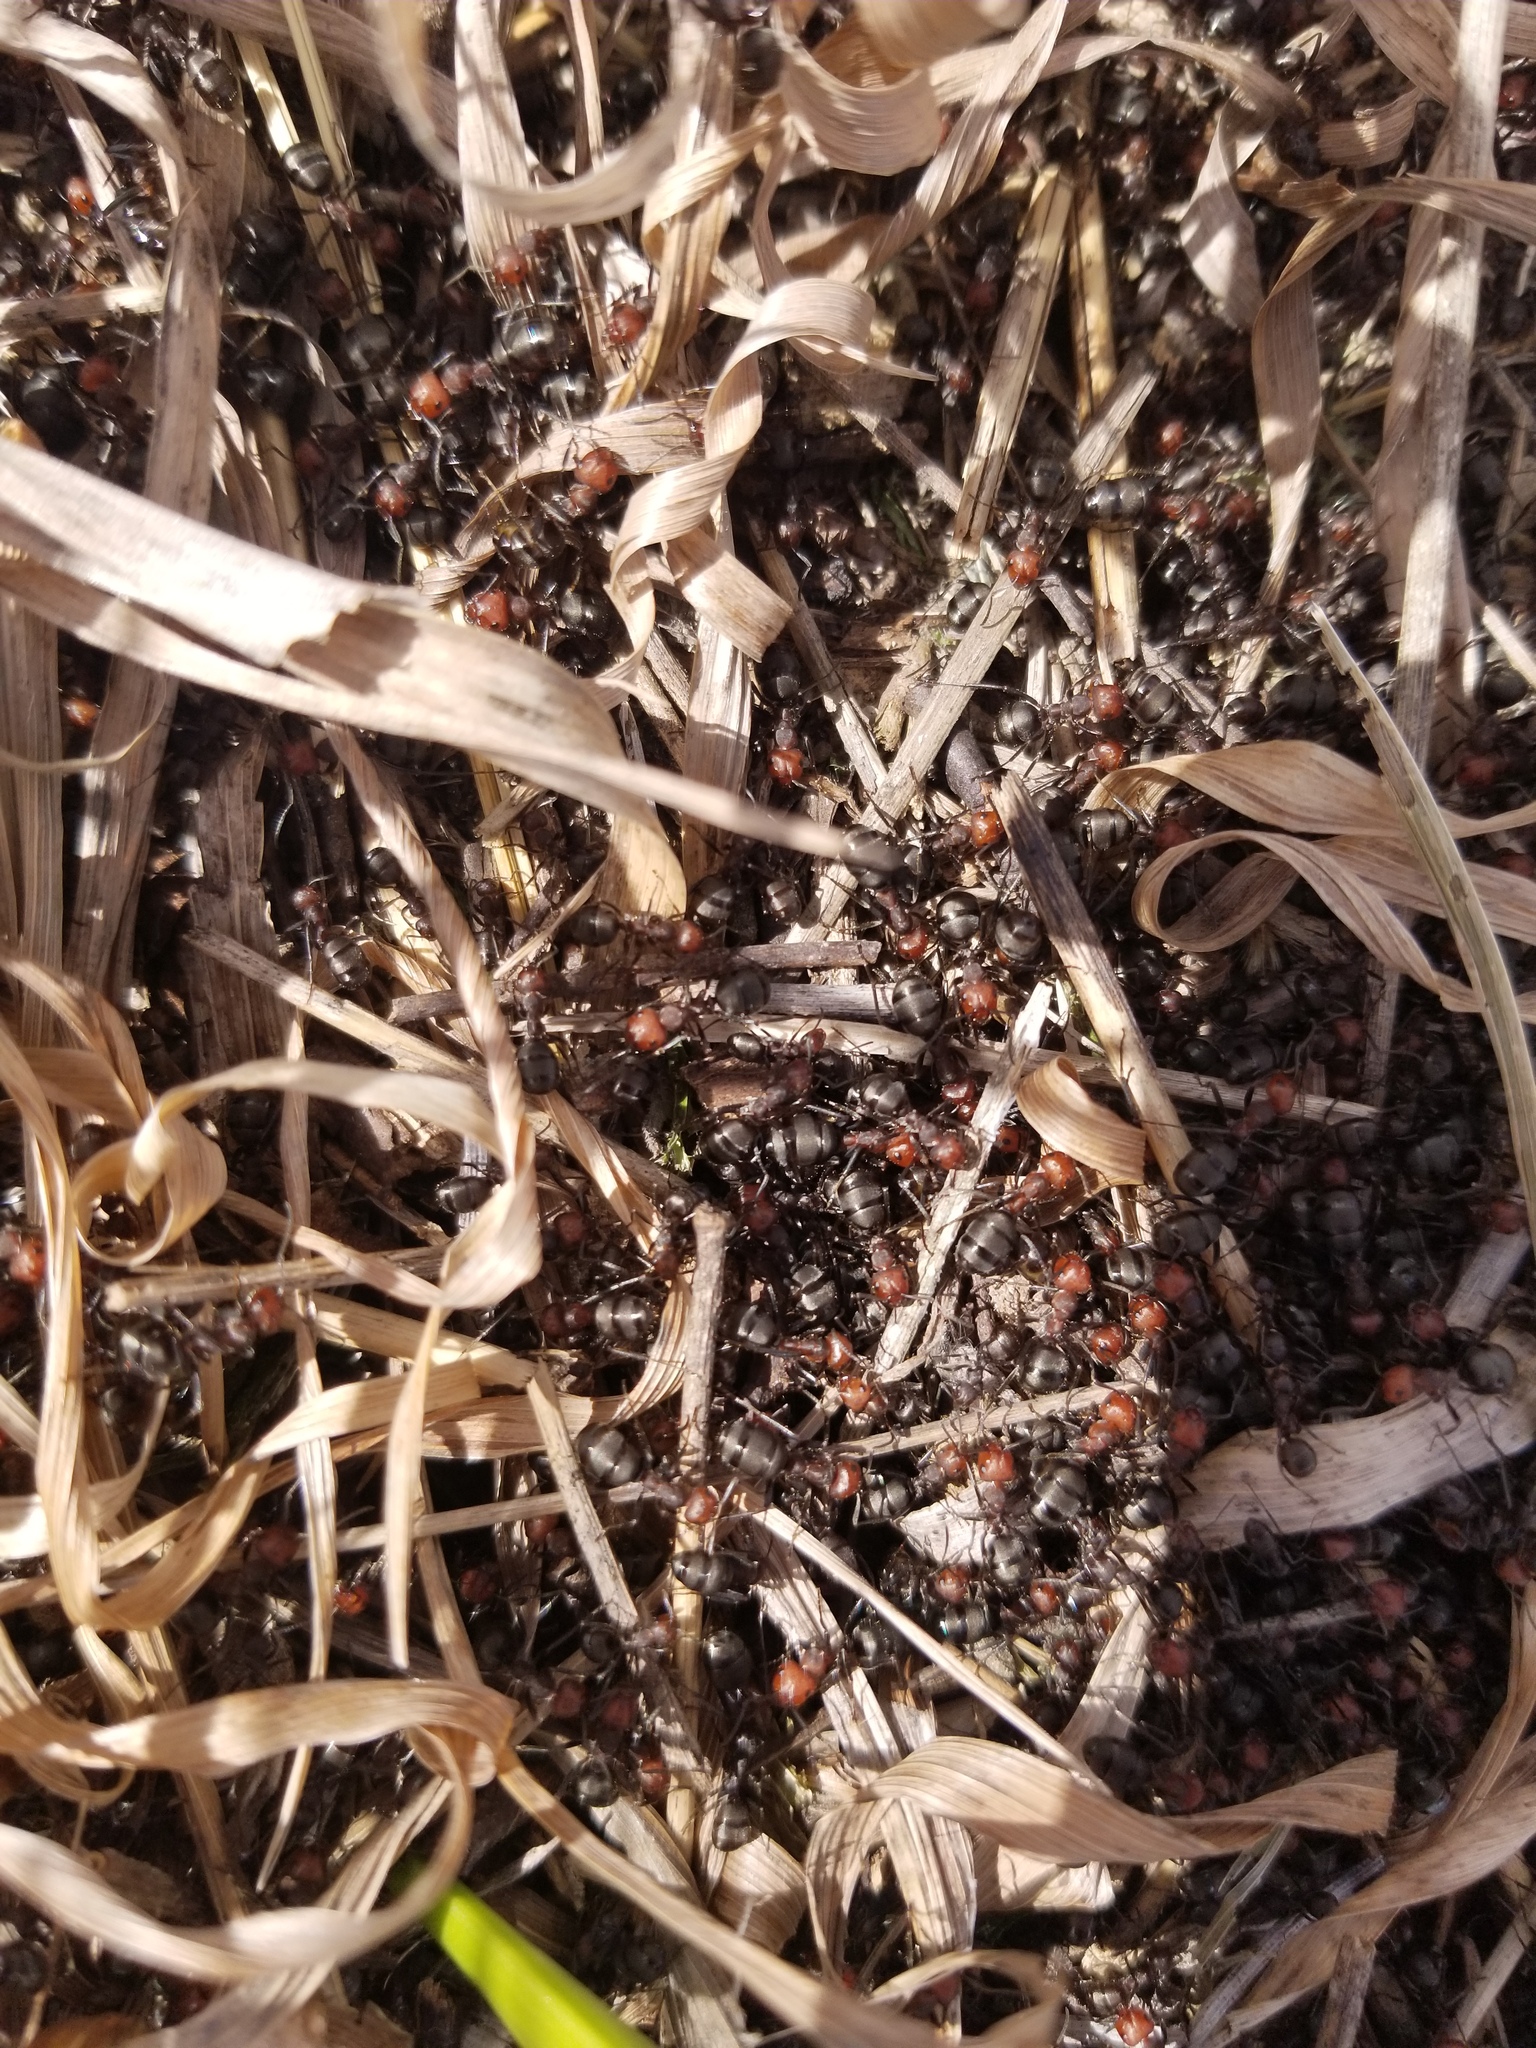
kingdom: Animalia
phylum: Arthropoda
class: Insecta
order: Hymenoptera
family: Formicidae
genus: Formica
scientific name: Formica obscuripes
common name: Western thatching ant
